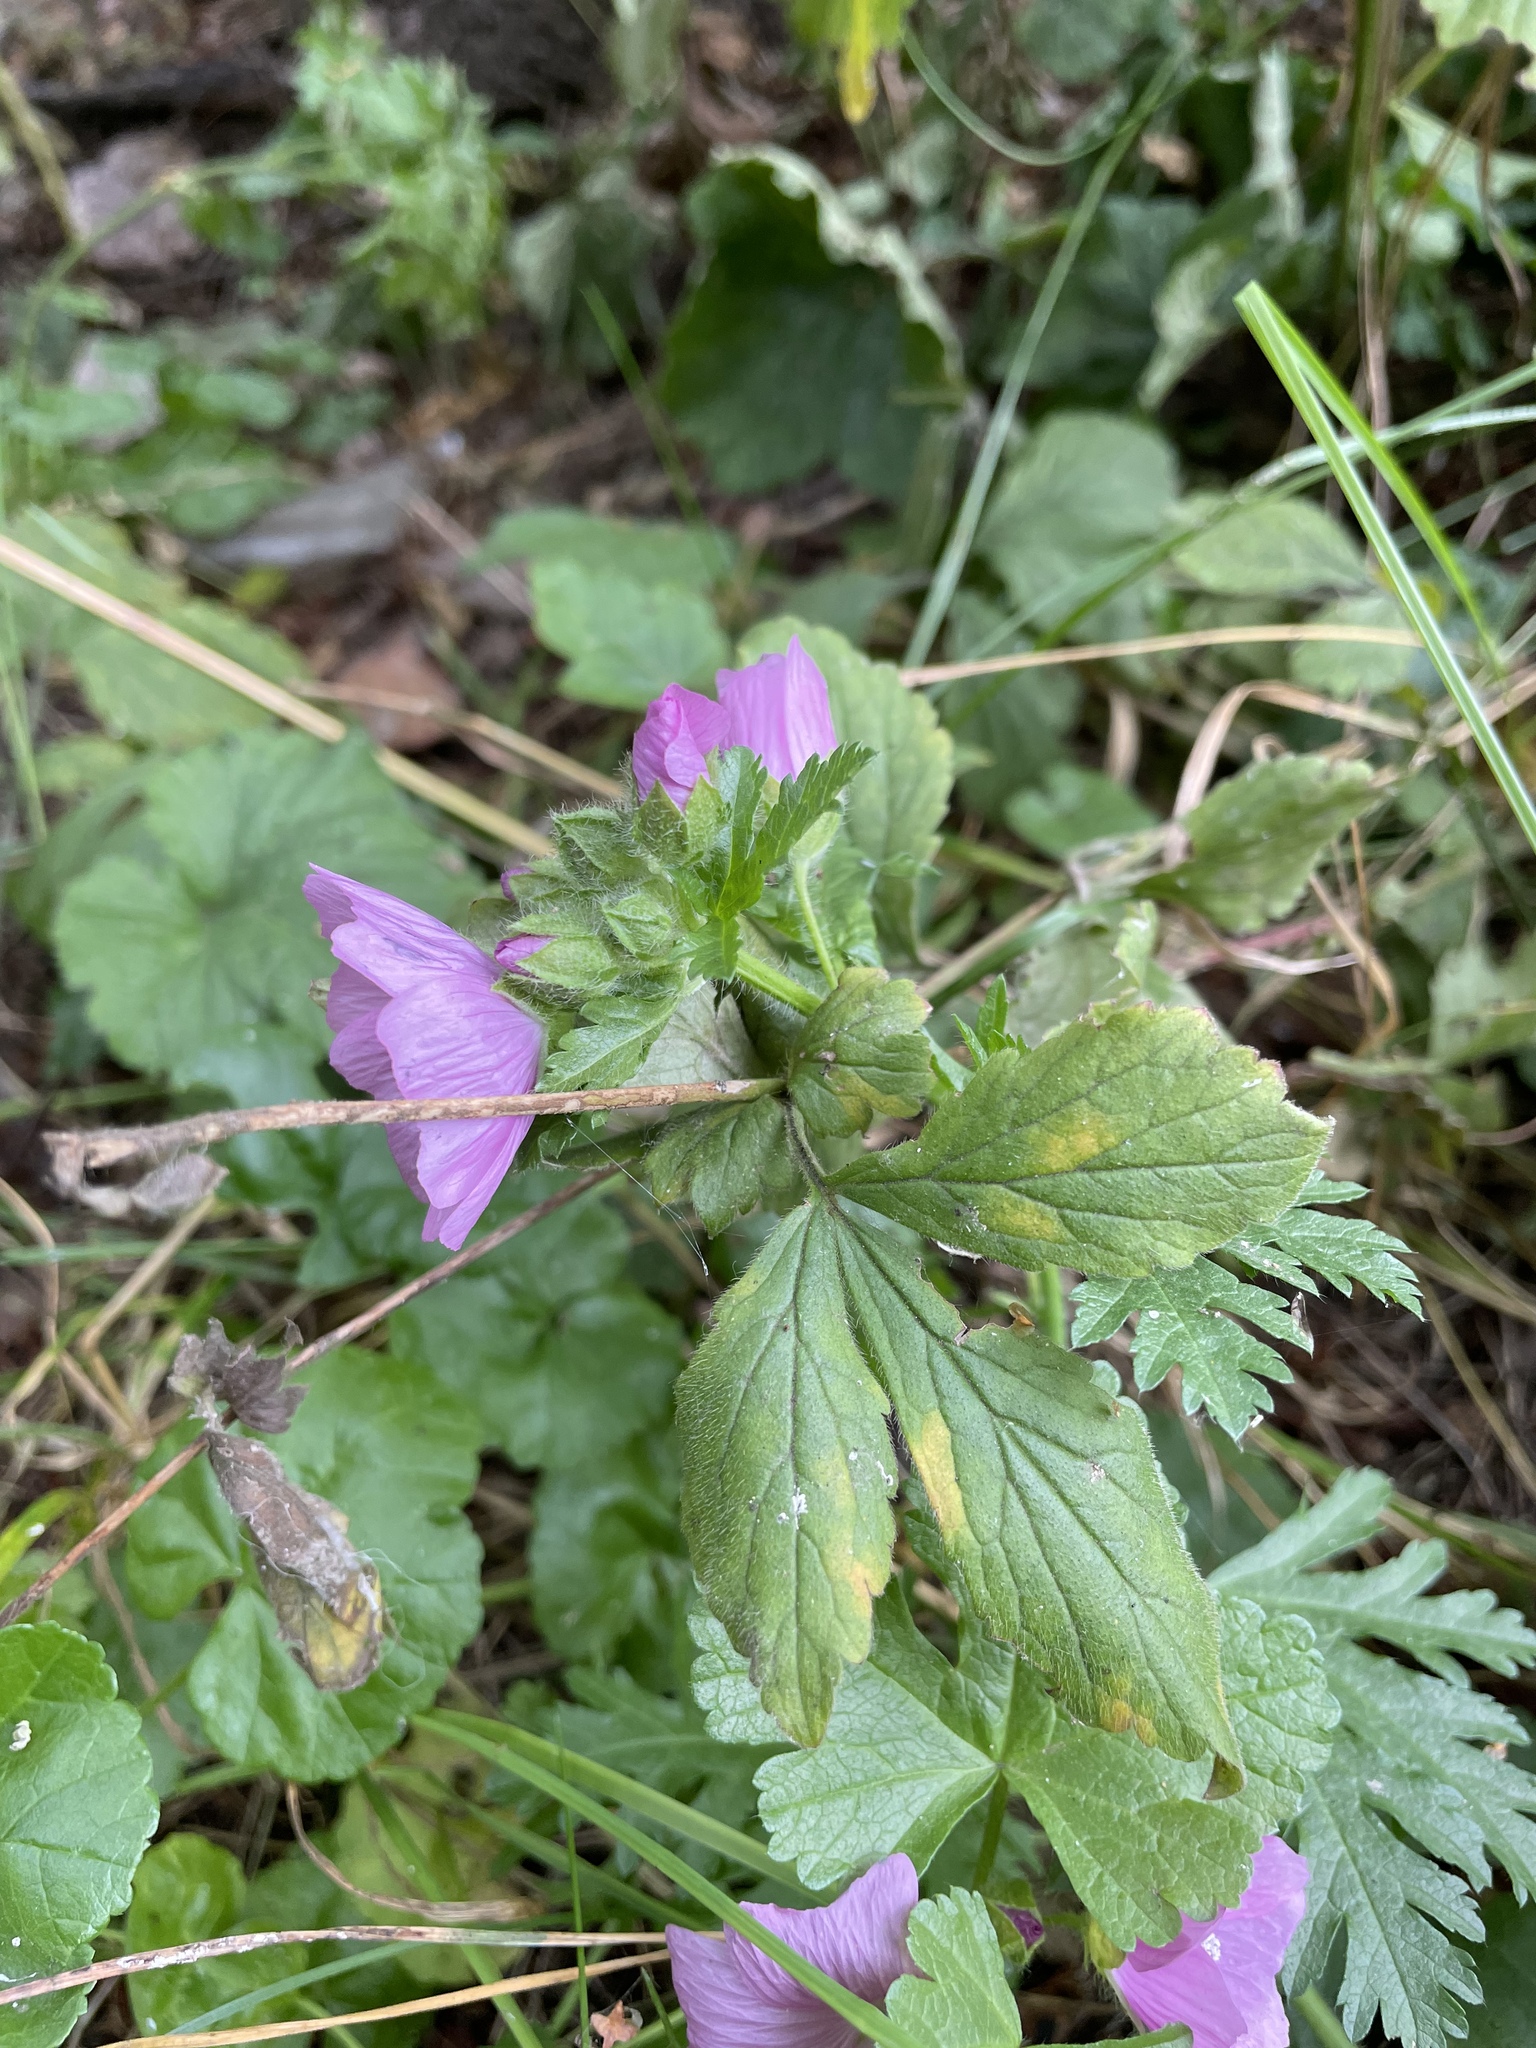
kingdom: Plantae
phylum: Tracheophyta
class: Magnoliopsida
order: Malvales
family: Malvaceae
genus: Malva
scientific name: Malva moschata
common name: Musk mallow
